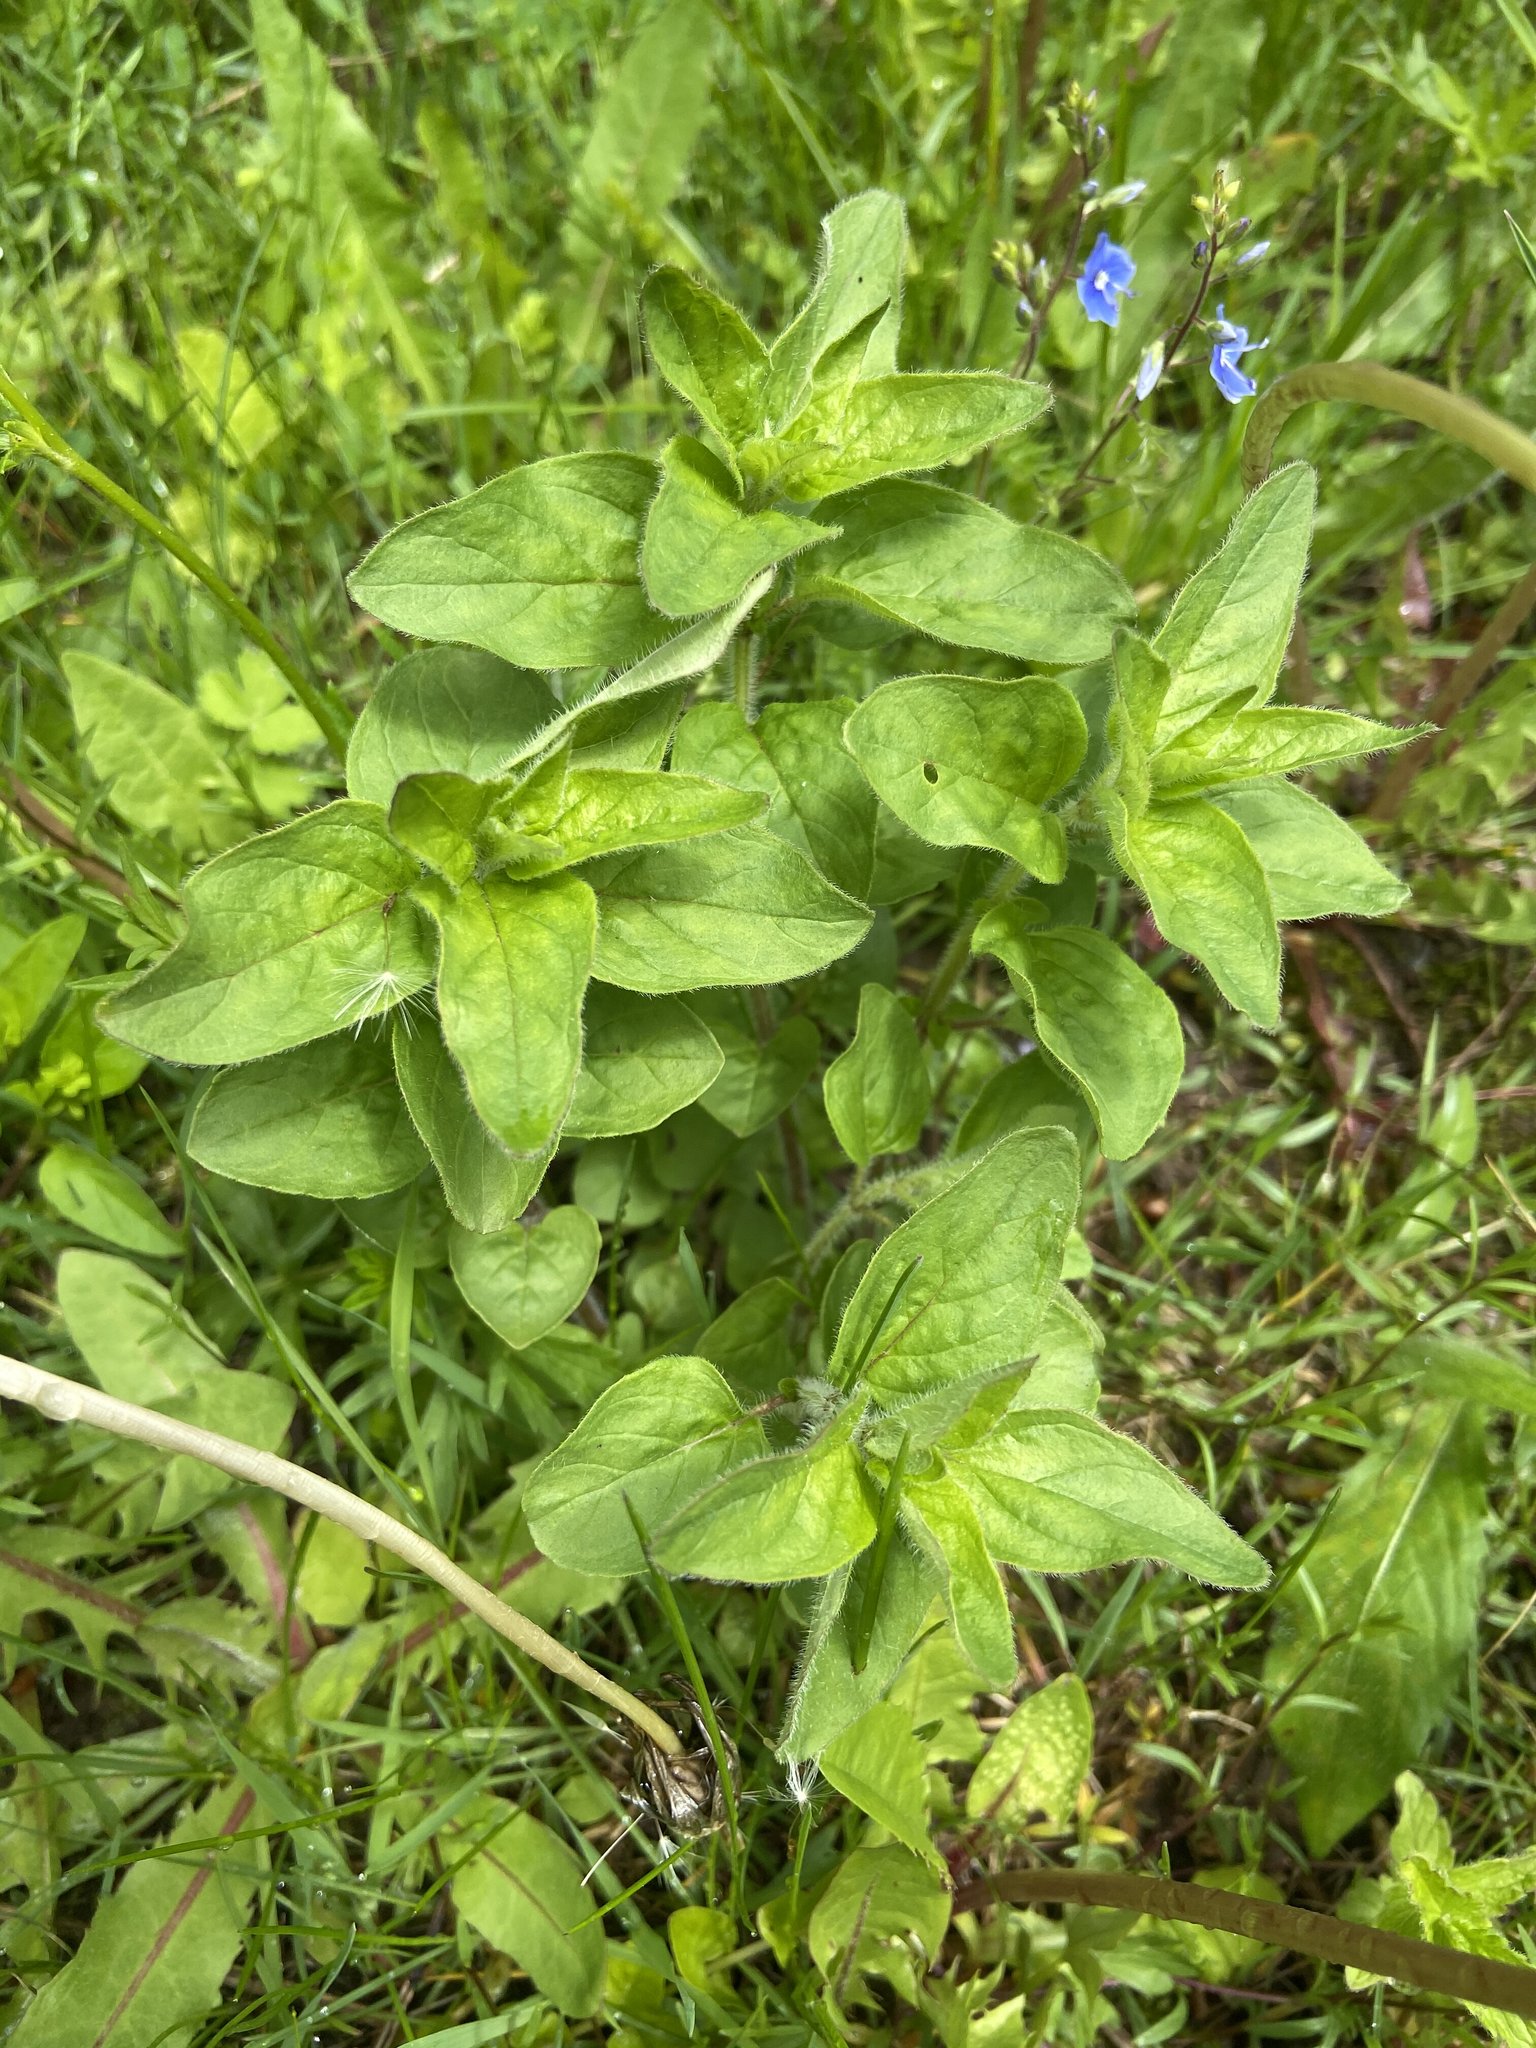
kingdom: Plantae
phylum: Tracheophyta
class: Magnoliopsida
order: Lamiales
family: Lamiaceae
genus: Origanum
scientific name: Origanum vulgare
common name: Wild marjoram
